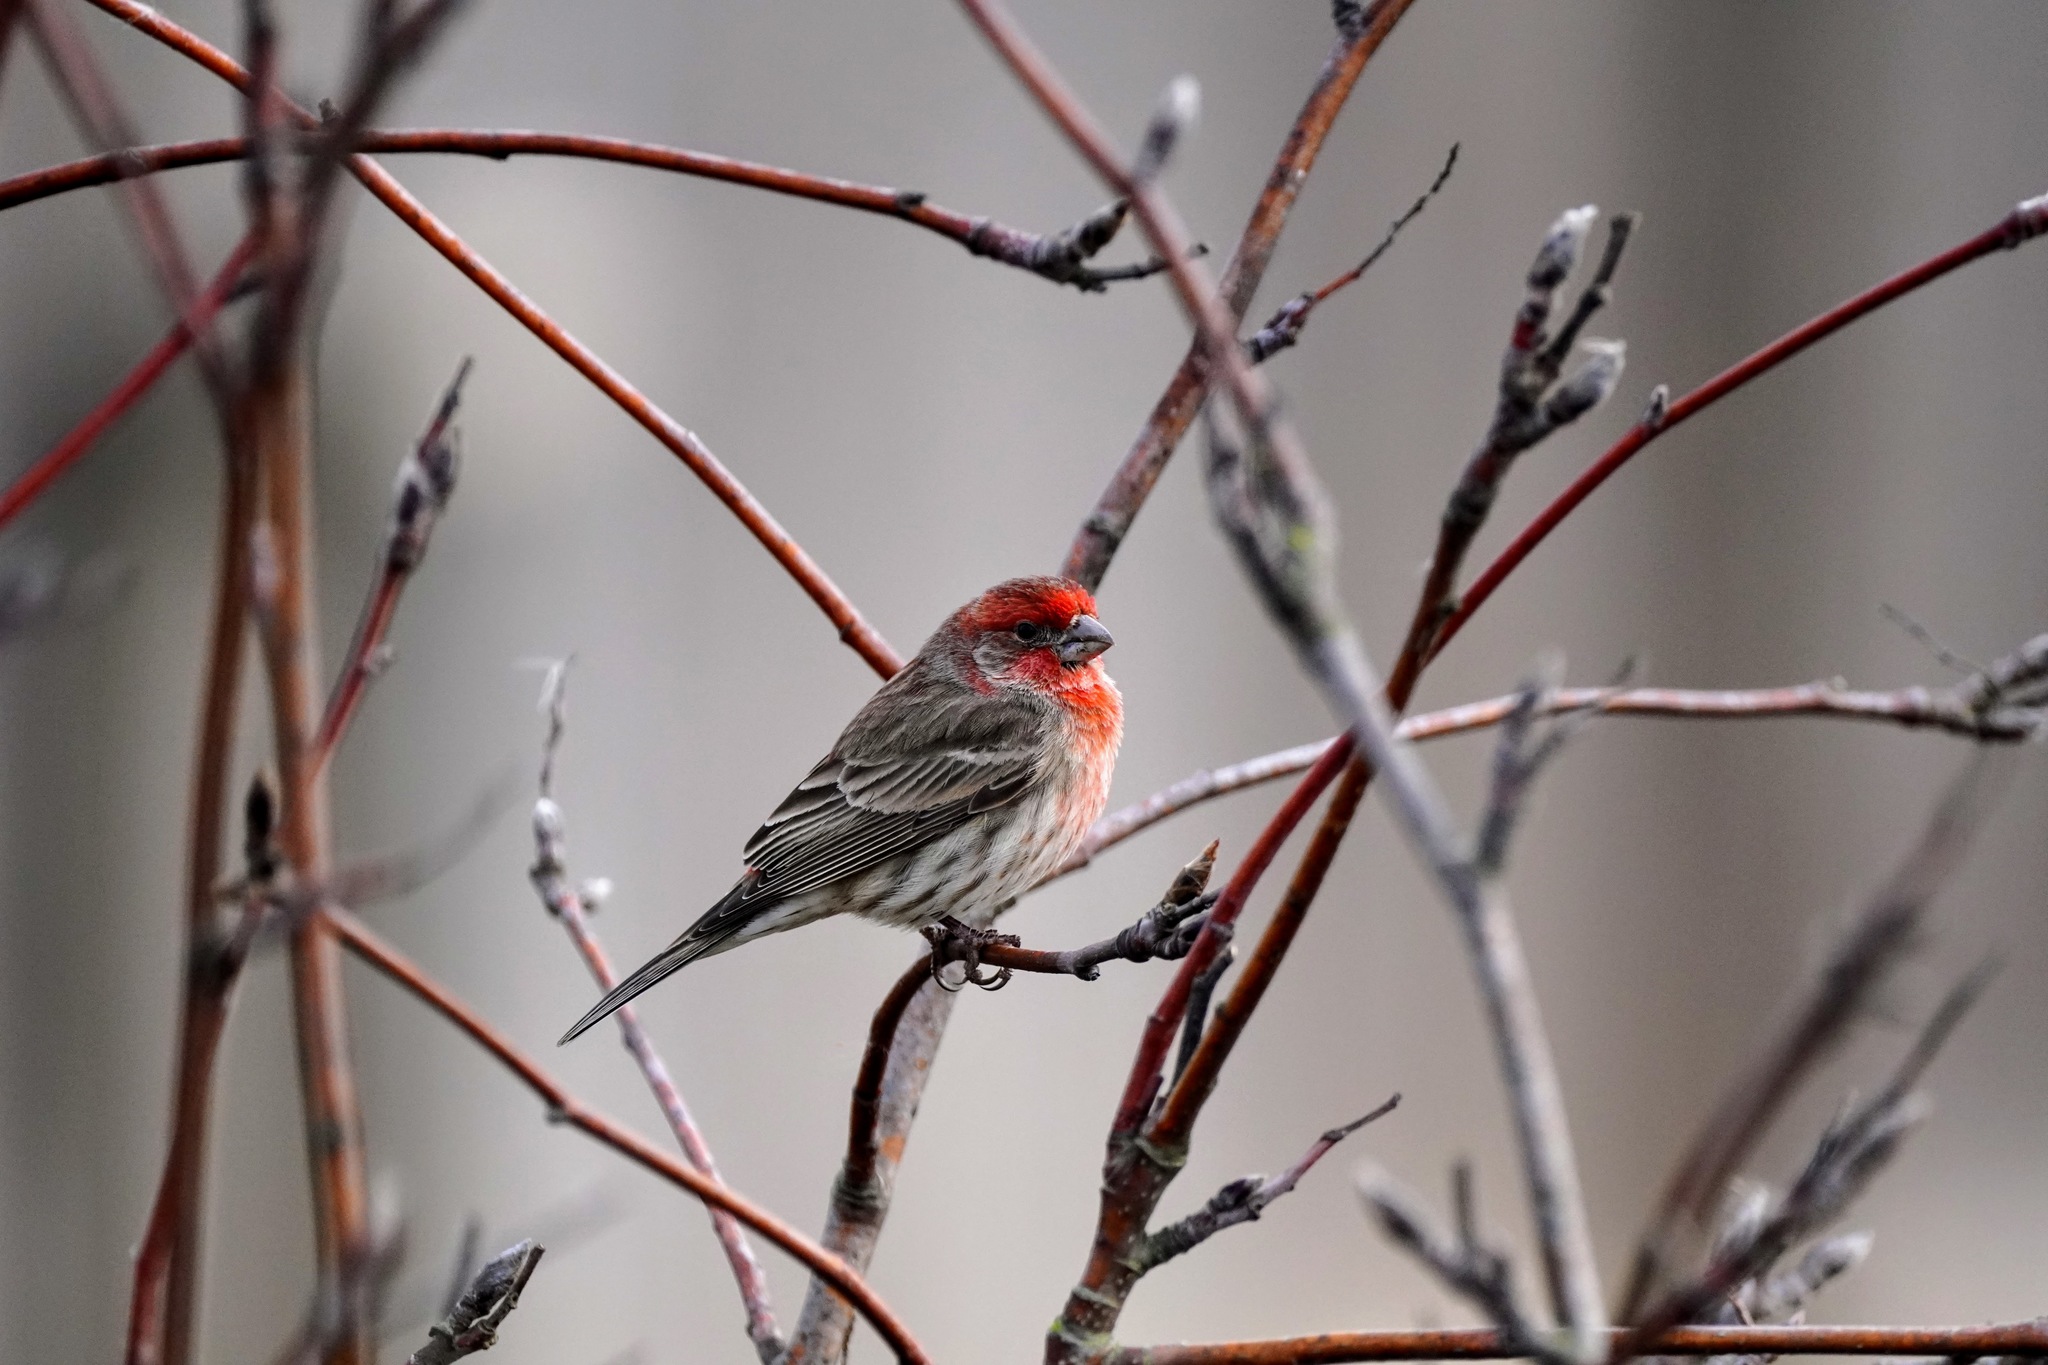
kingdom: Animalia
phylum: Chordata
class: Aves
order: Passeriformes
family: Fringillidae
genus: Haemorhous
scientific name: Haemorhous mexicanus
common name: House finch
